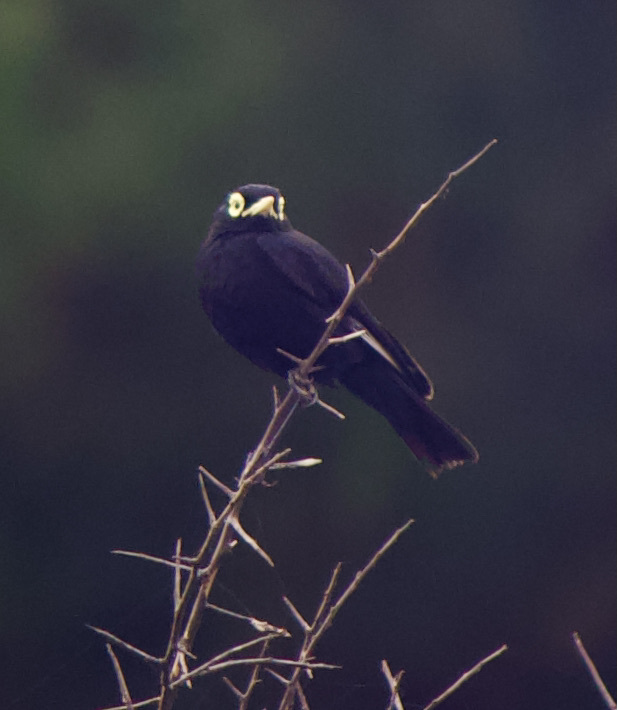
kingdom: Animalia
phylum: Chordata
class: Aves
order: Passeriformes
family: Tyrannidae
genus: Hymenops
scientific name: Hymenops perspicillatus
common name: Spectacled tyrant
